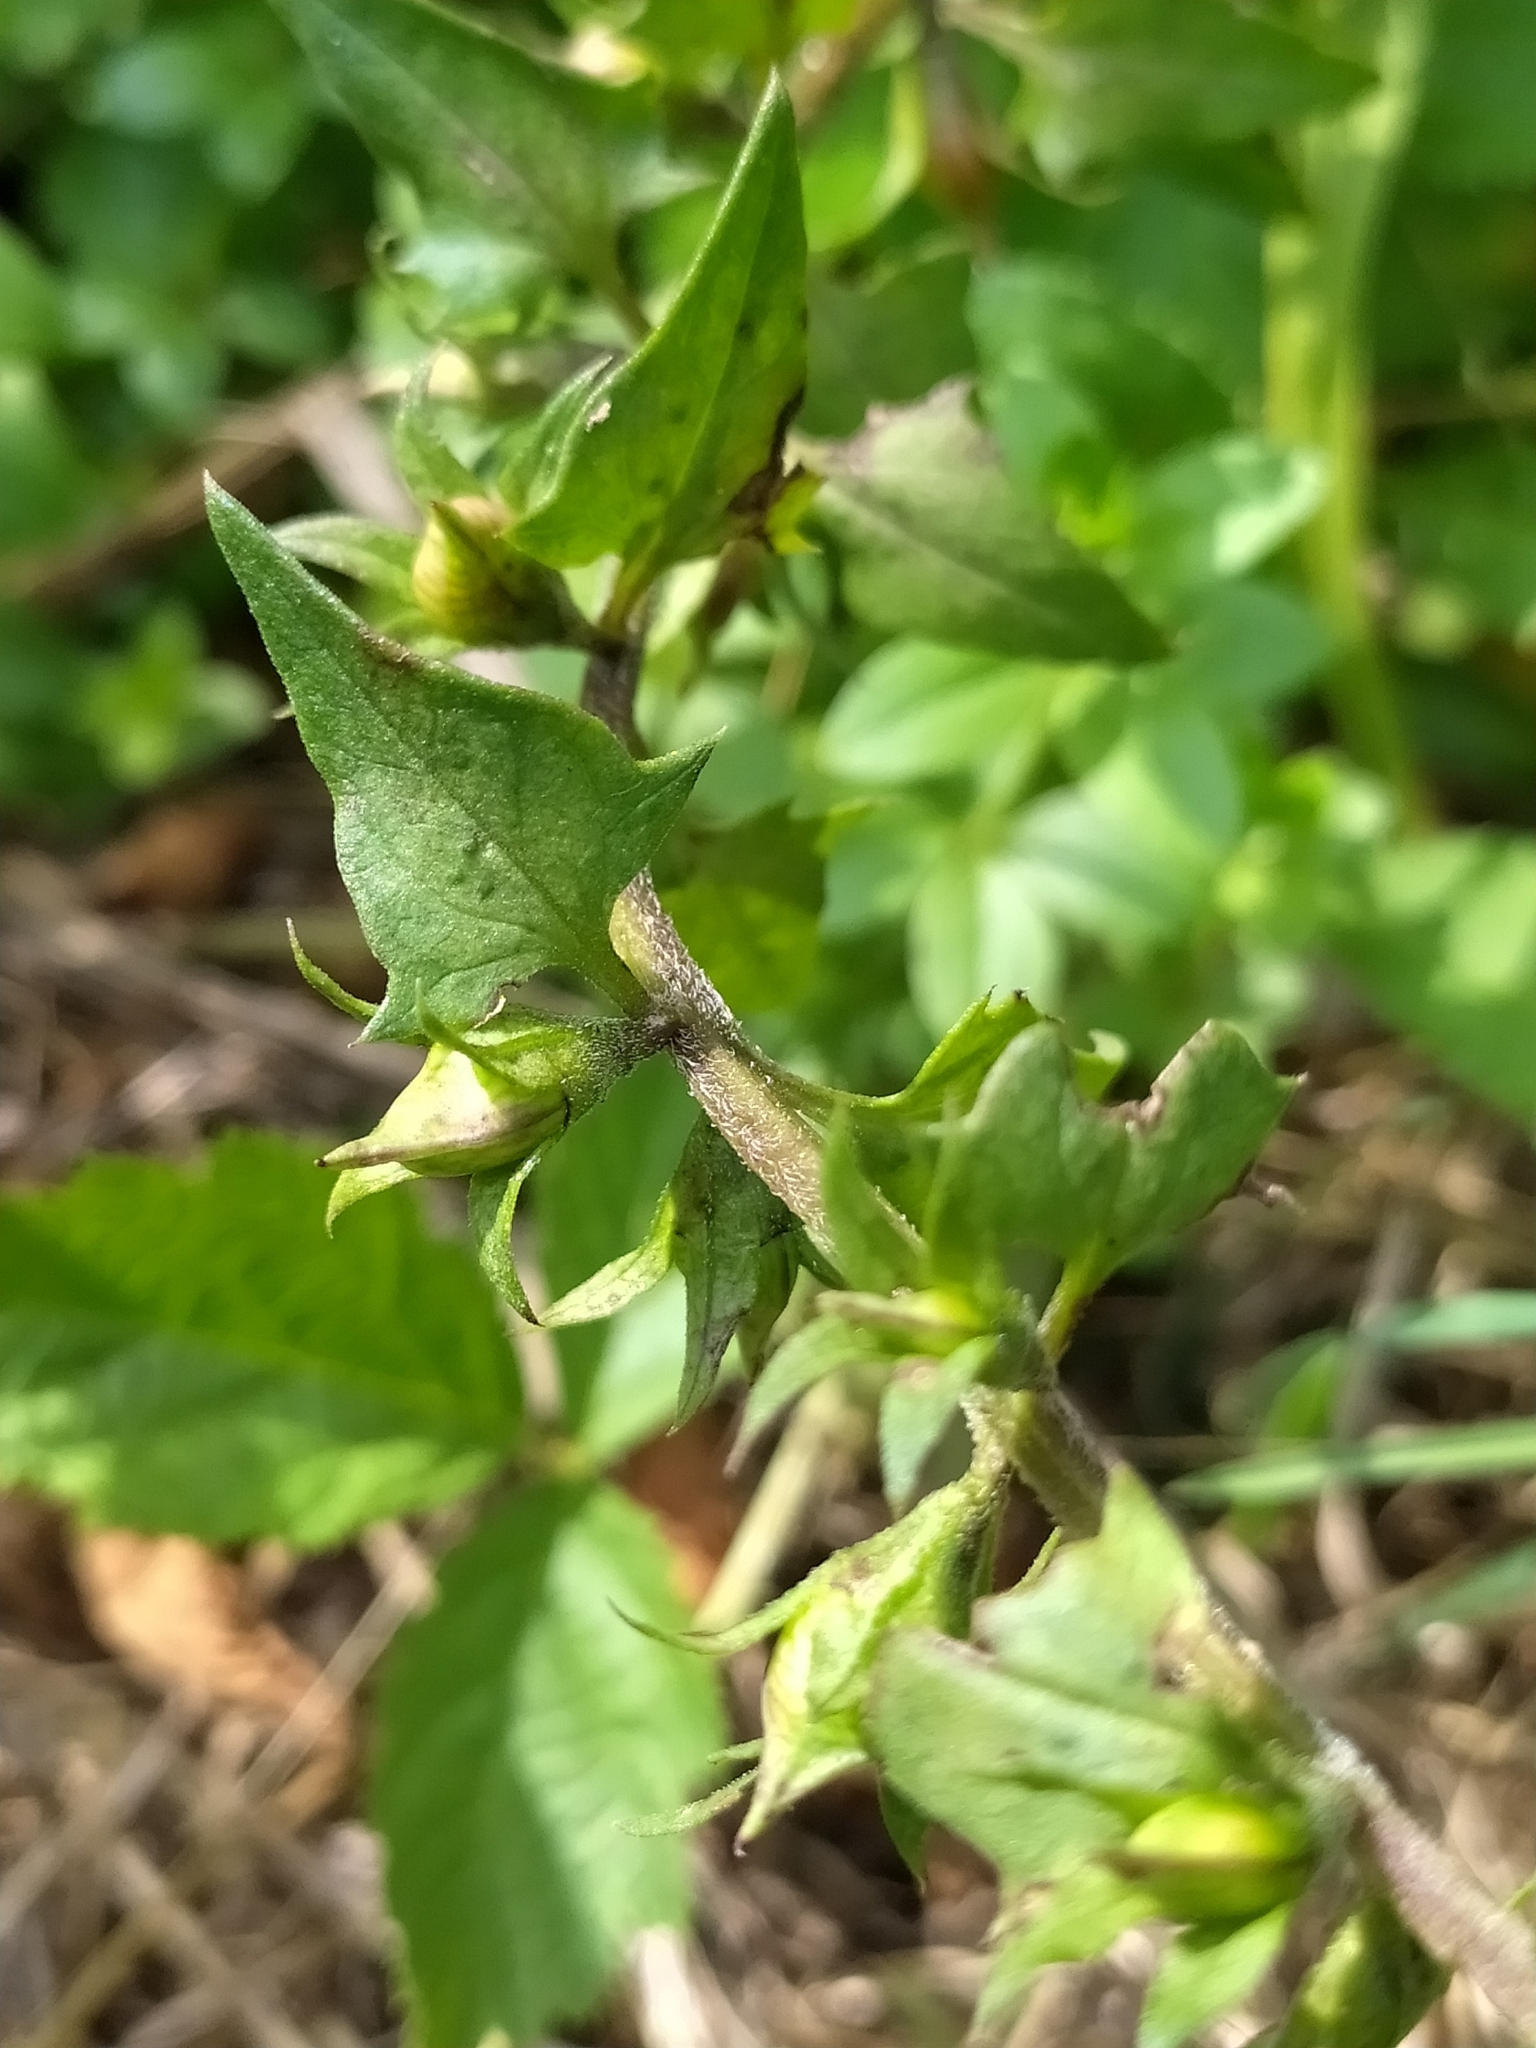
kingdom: Plantae
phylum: Tracheophyta
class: Magnoliopsida
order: Lamiales
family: Orobanchaceae
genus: Melampyrum
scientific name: Melampyrum nemorosum
